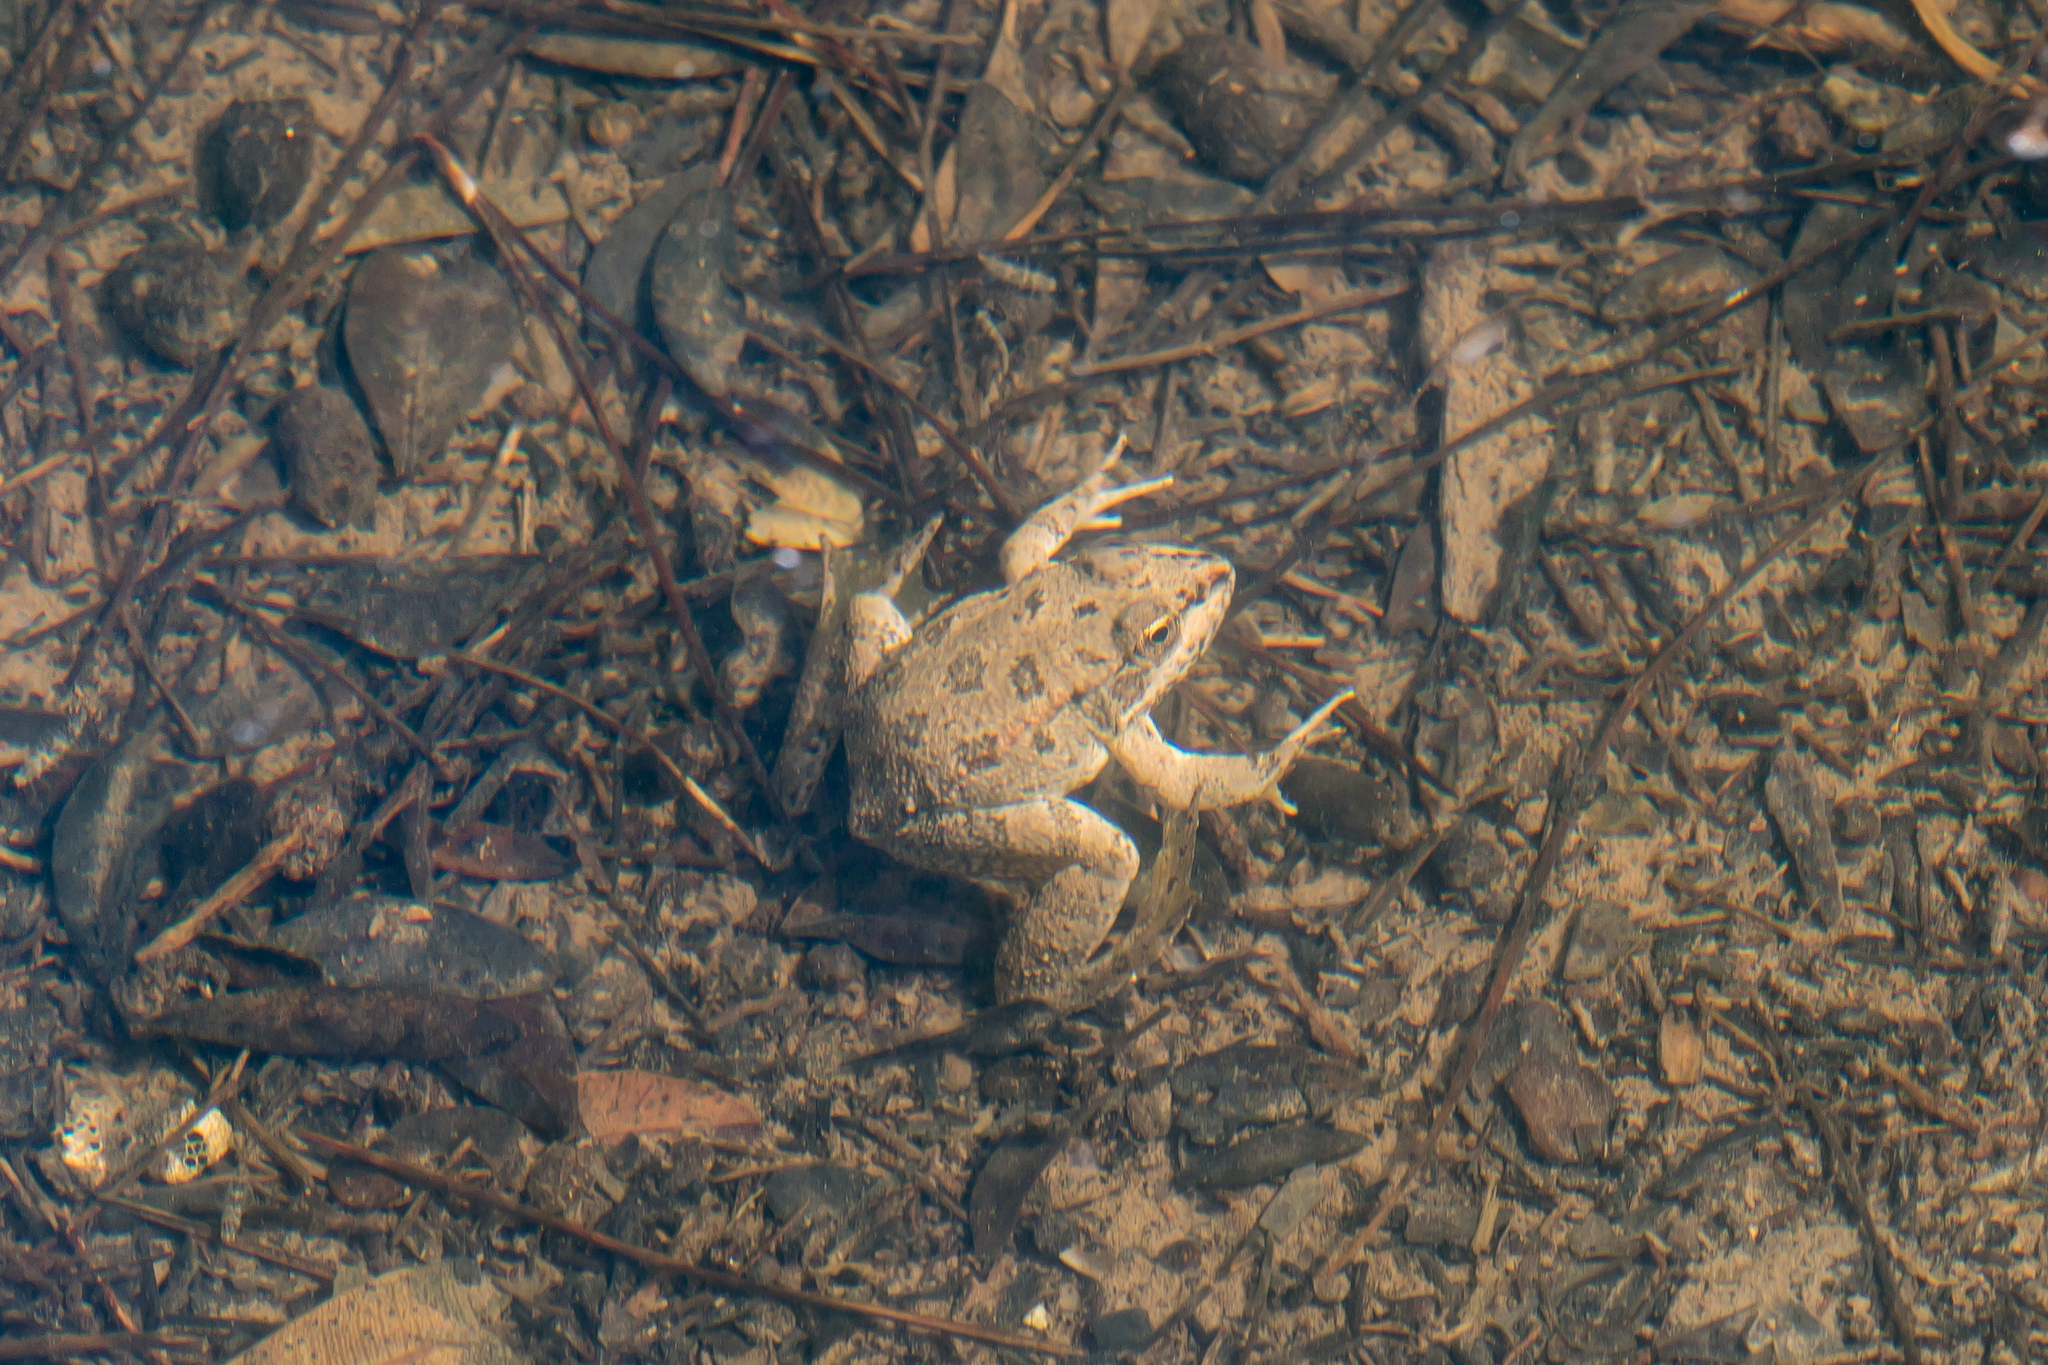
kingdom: Animalia
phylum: Chordata
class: Amphibia
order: Anura
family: Ranidae
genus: Pelophylax
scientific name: Pelophylax ridibundus
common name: Marsh frog
